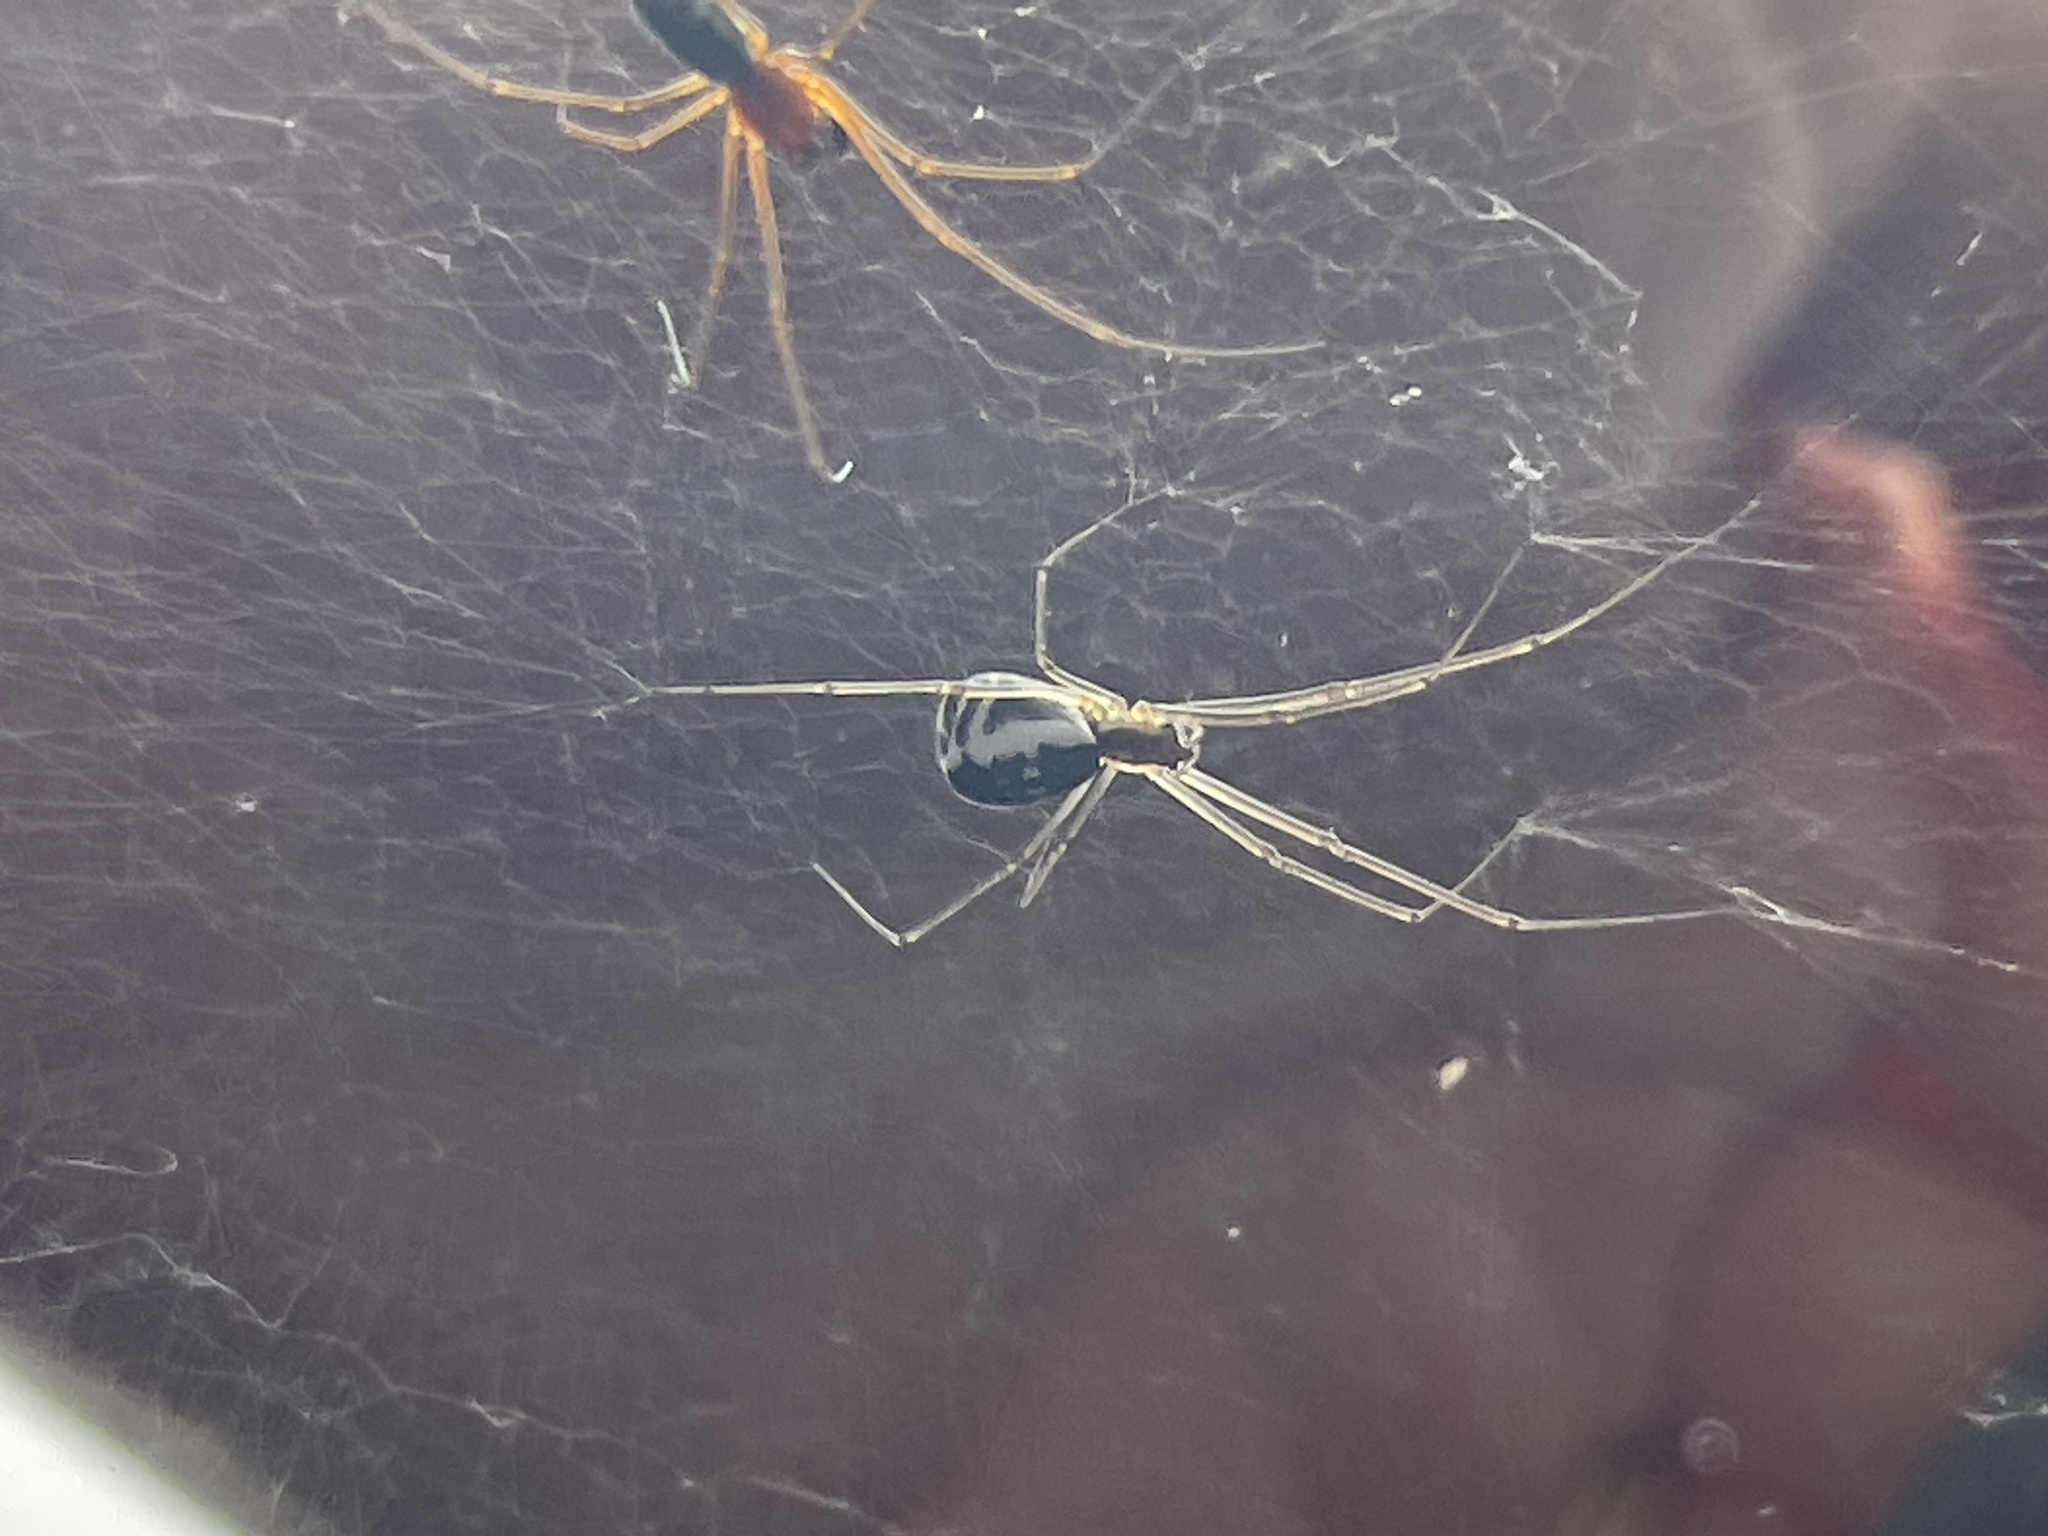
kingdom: Animalia
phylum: Arthropoda
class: Arachnida
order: Araneae
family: Linyphiidae
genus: Neriene
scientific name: Neriene radiata
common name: Filmy dome spider
